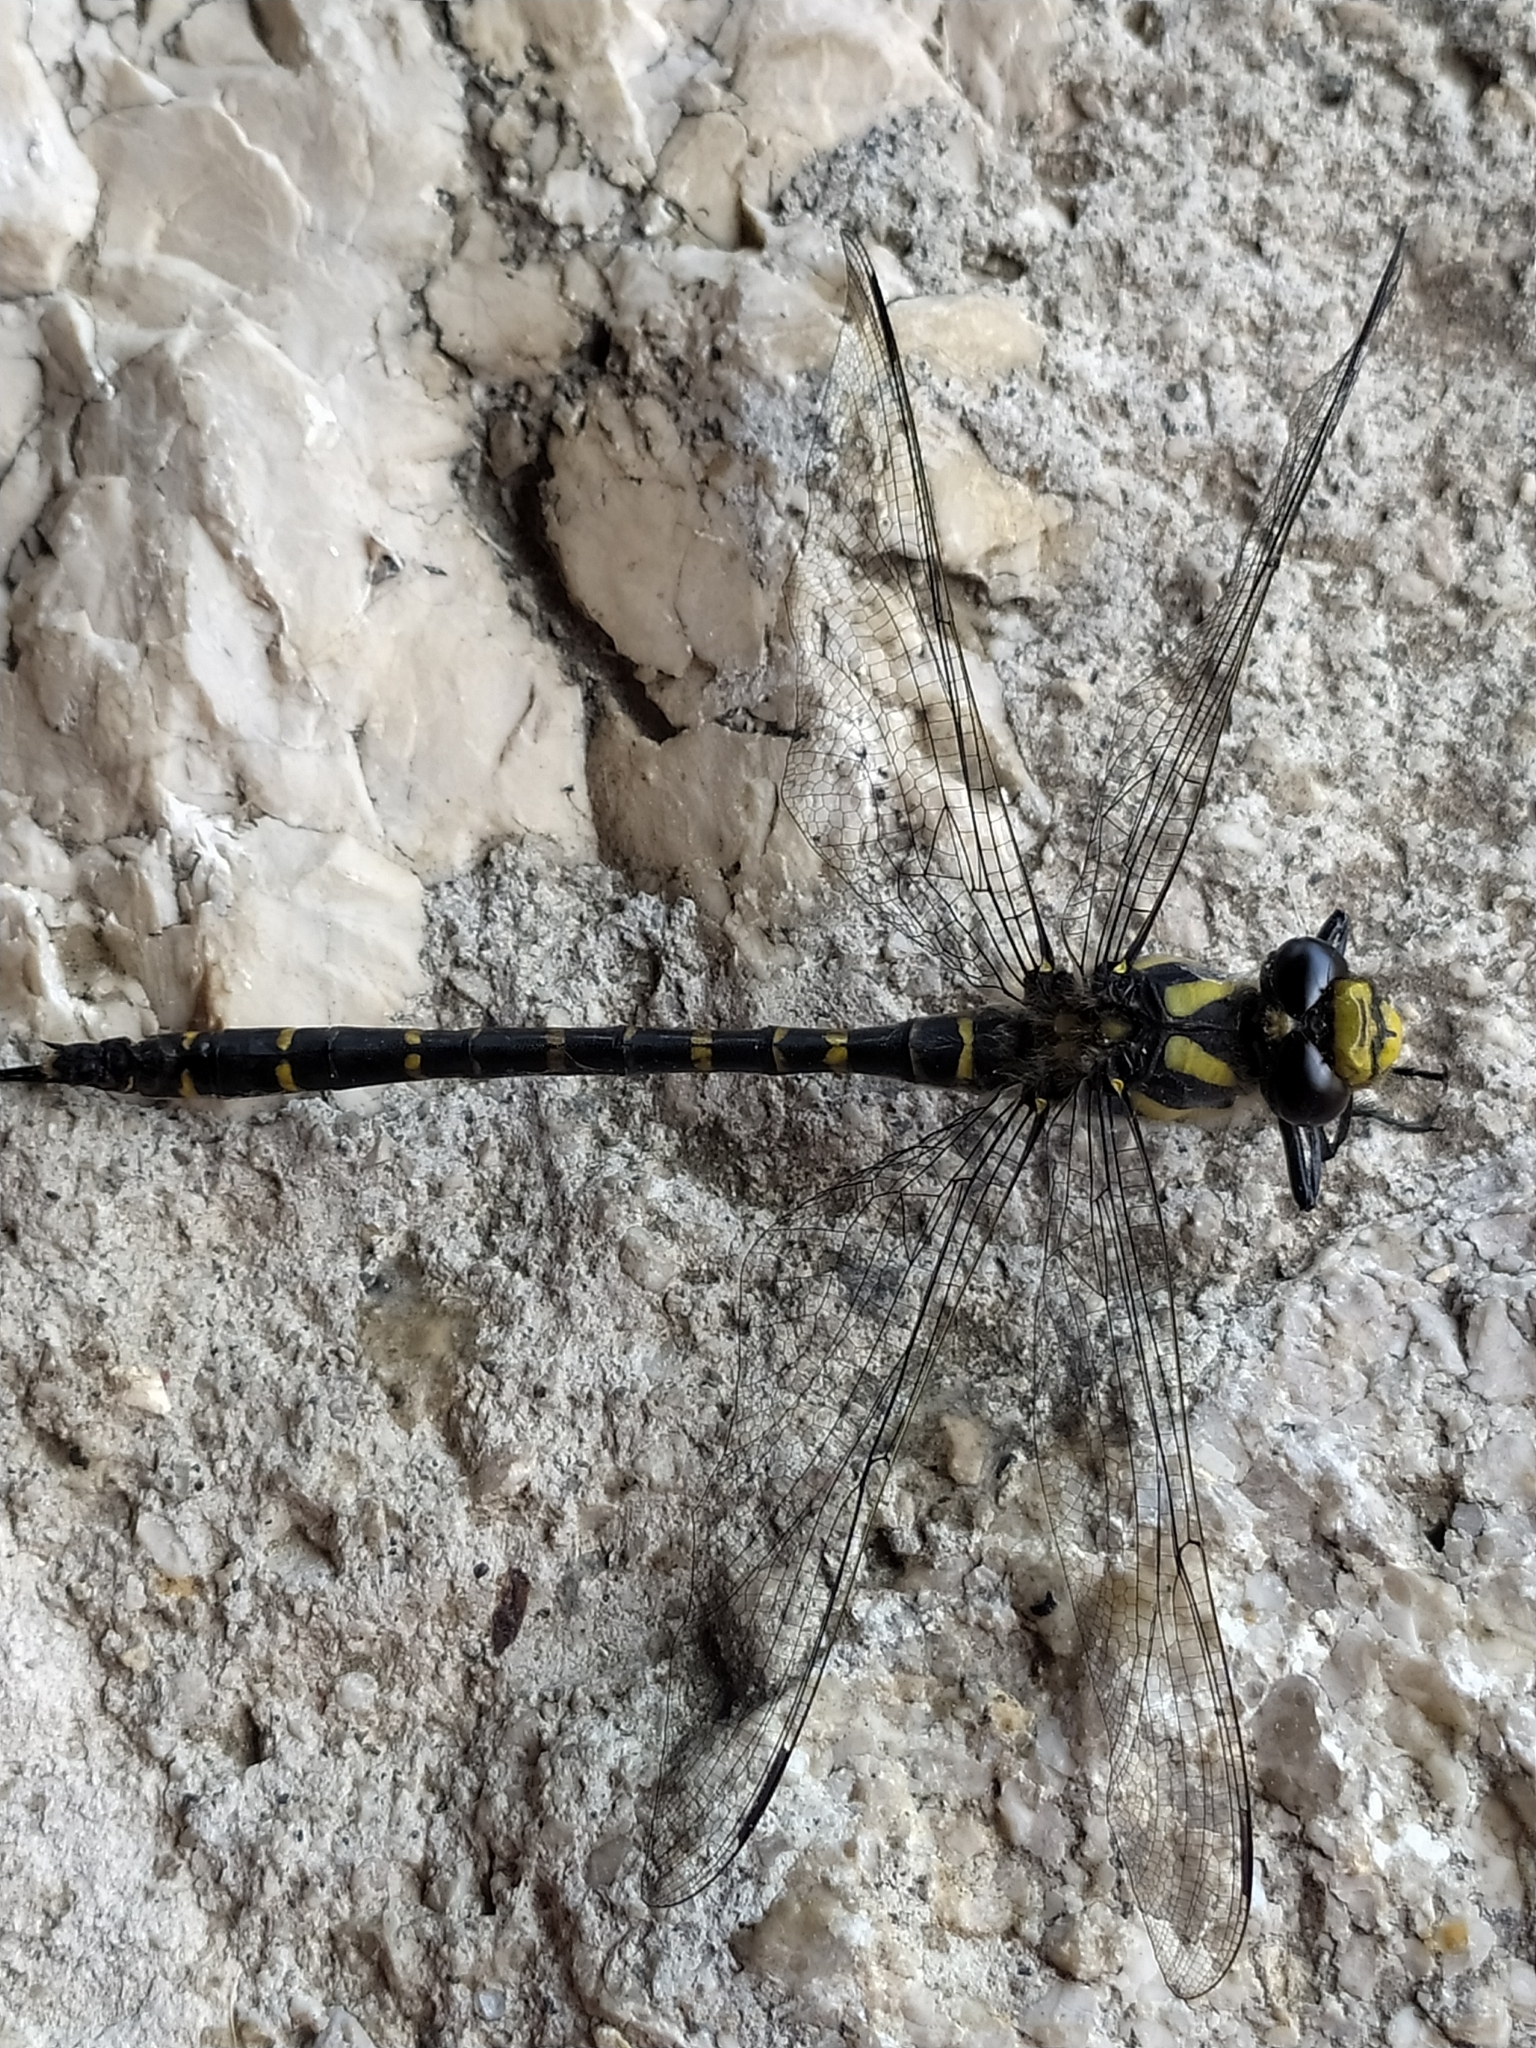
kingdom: Animalia
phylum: Arthropoda
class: Insecta
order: Odonata
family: Cordulegastridae
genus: Cordulegaster
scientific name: Cordulegaster trinacriae
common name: Italian goldenring
